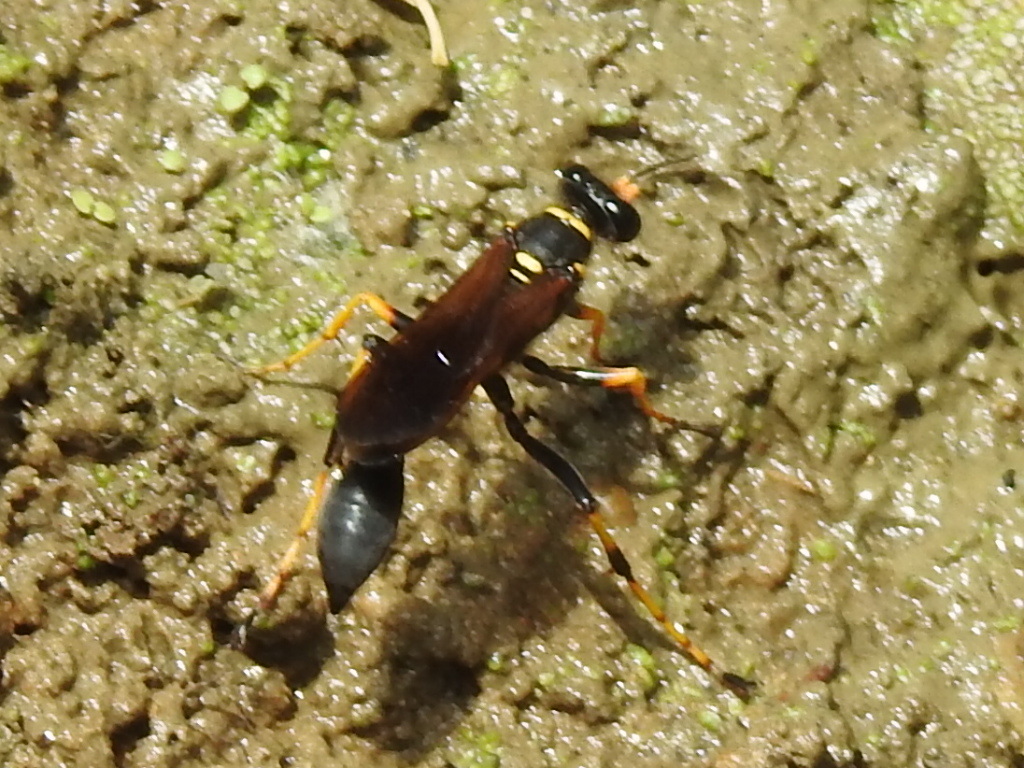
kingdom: Animalia
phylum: Arthropoda
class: Insecta
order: Hymenoptera
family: Sphecidae
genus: Sceliphron
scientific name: Sceliphron caementarium
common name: Mud dauber
